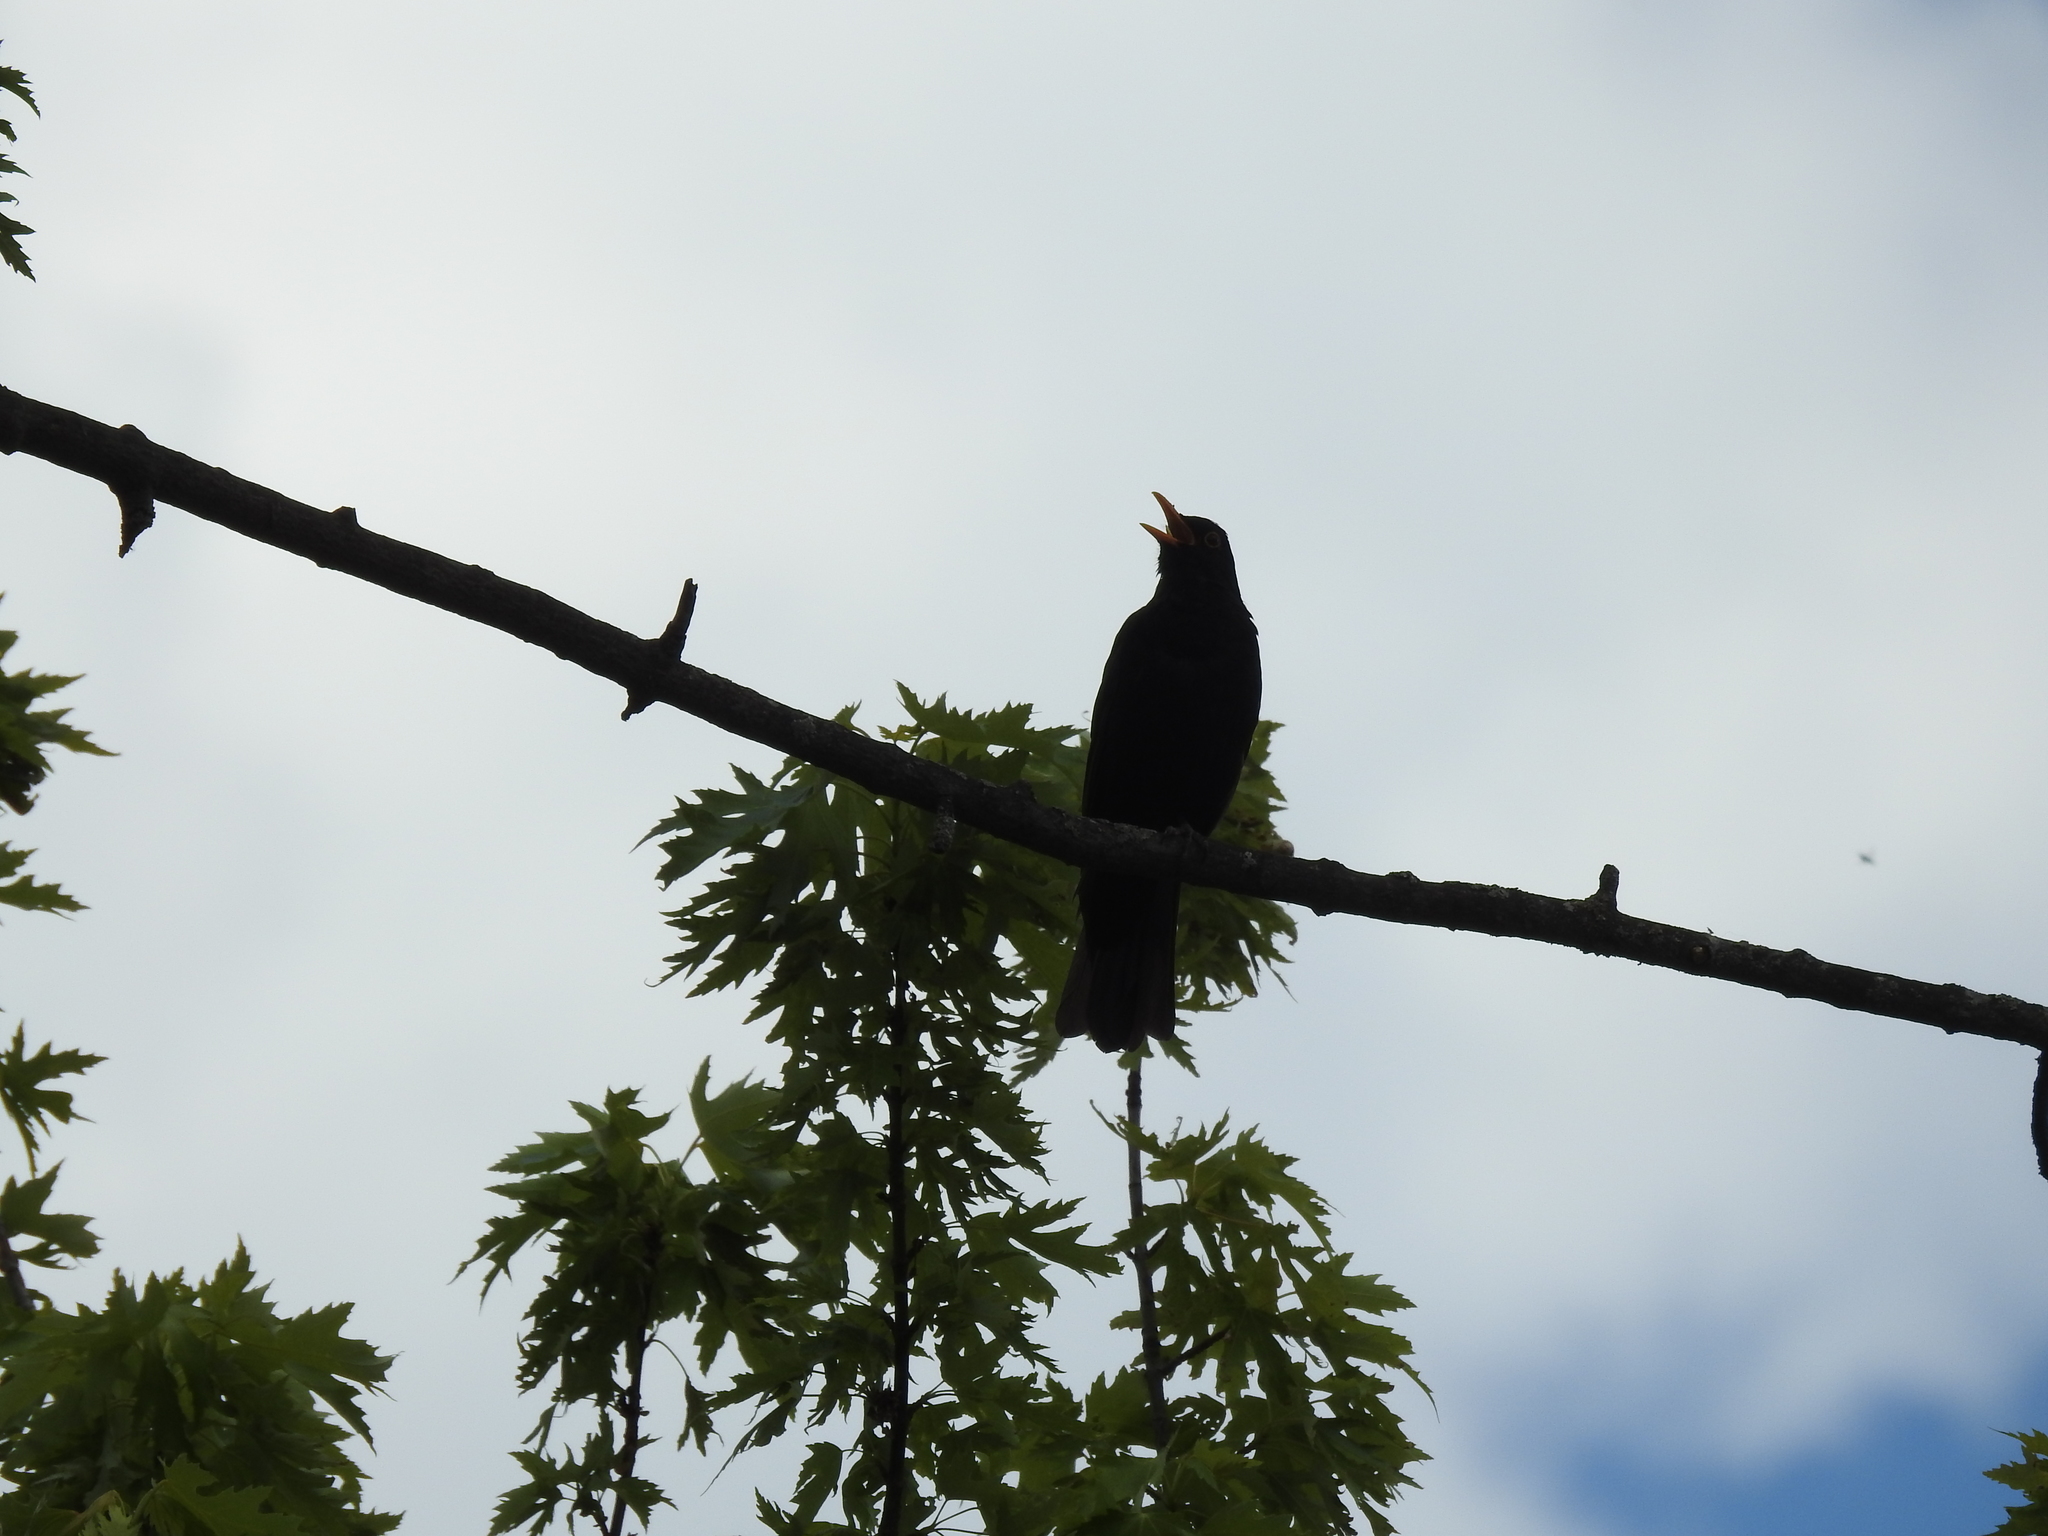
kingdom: Animalia
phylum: Chordata
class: Aves
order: Passeriformes
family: Turdidae
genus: Turdus
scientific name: Turdus merula
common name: Common blackbird
